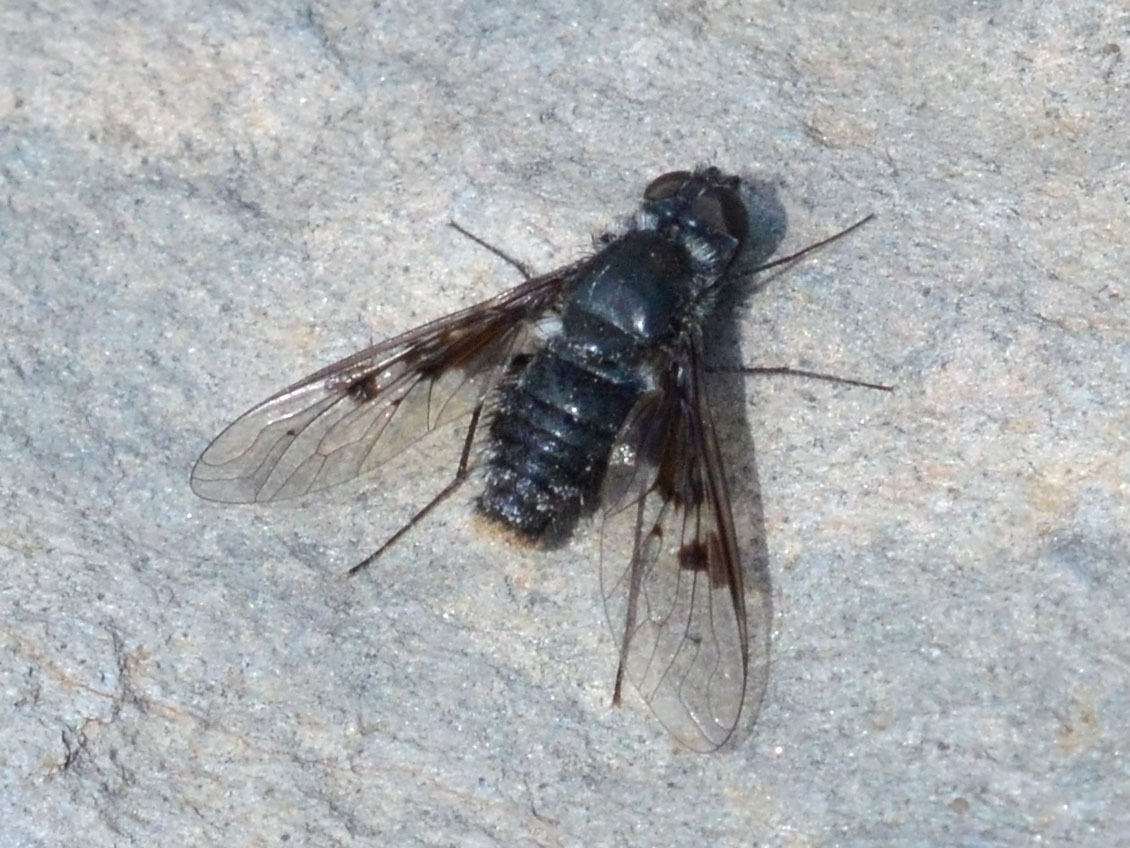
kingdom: Animalia
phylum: Arthropoda
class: Insecta
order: Diptera
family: Bombyliidae
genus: Anthrax
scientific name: Anthrax trifasciatus
